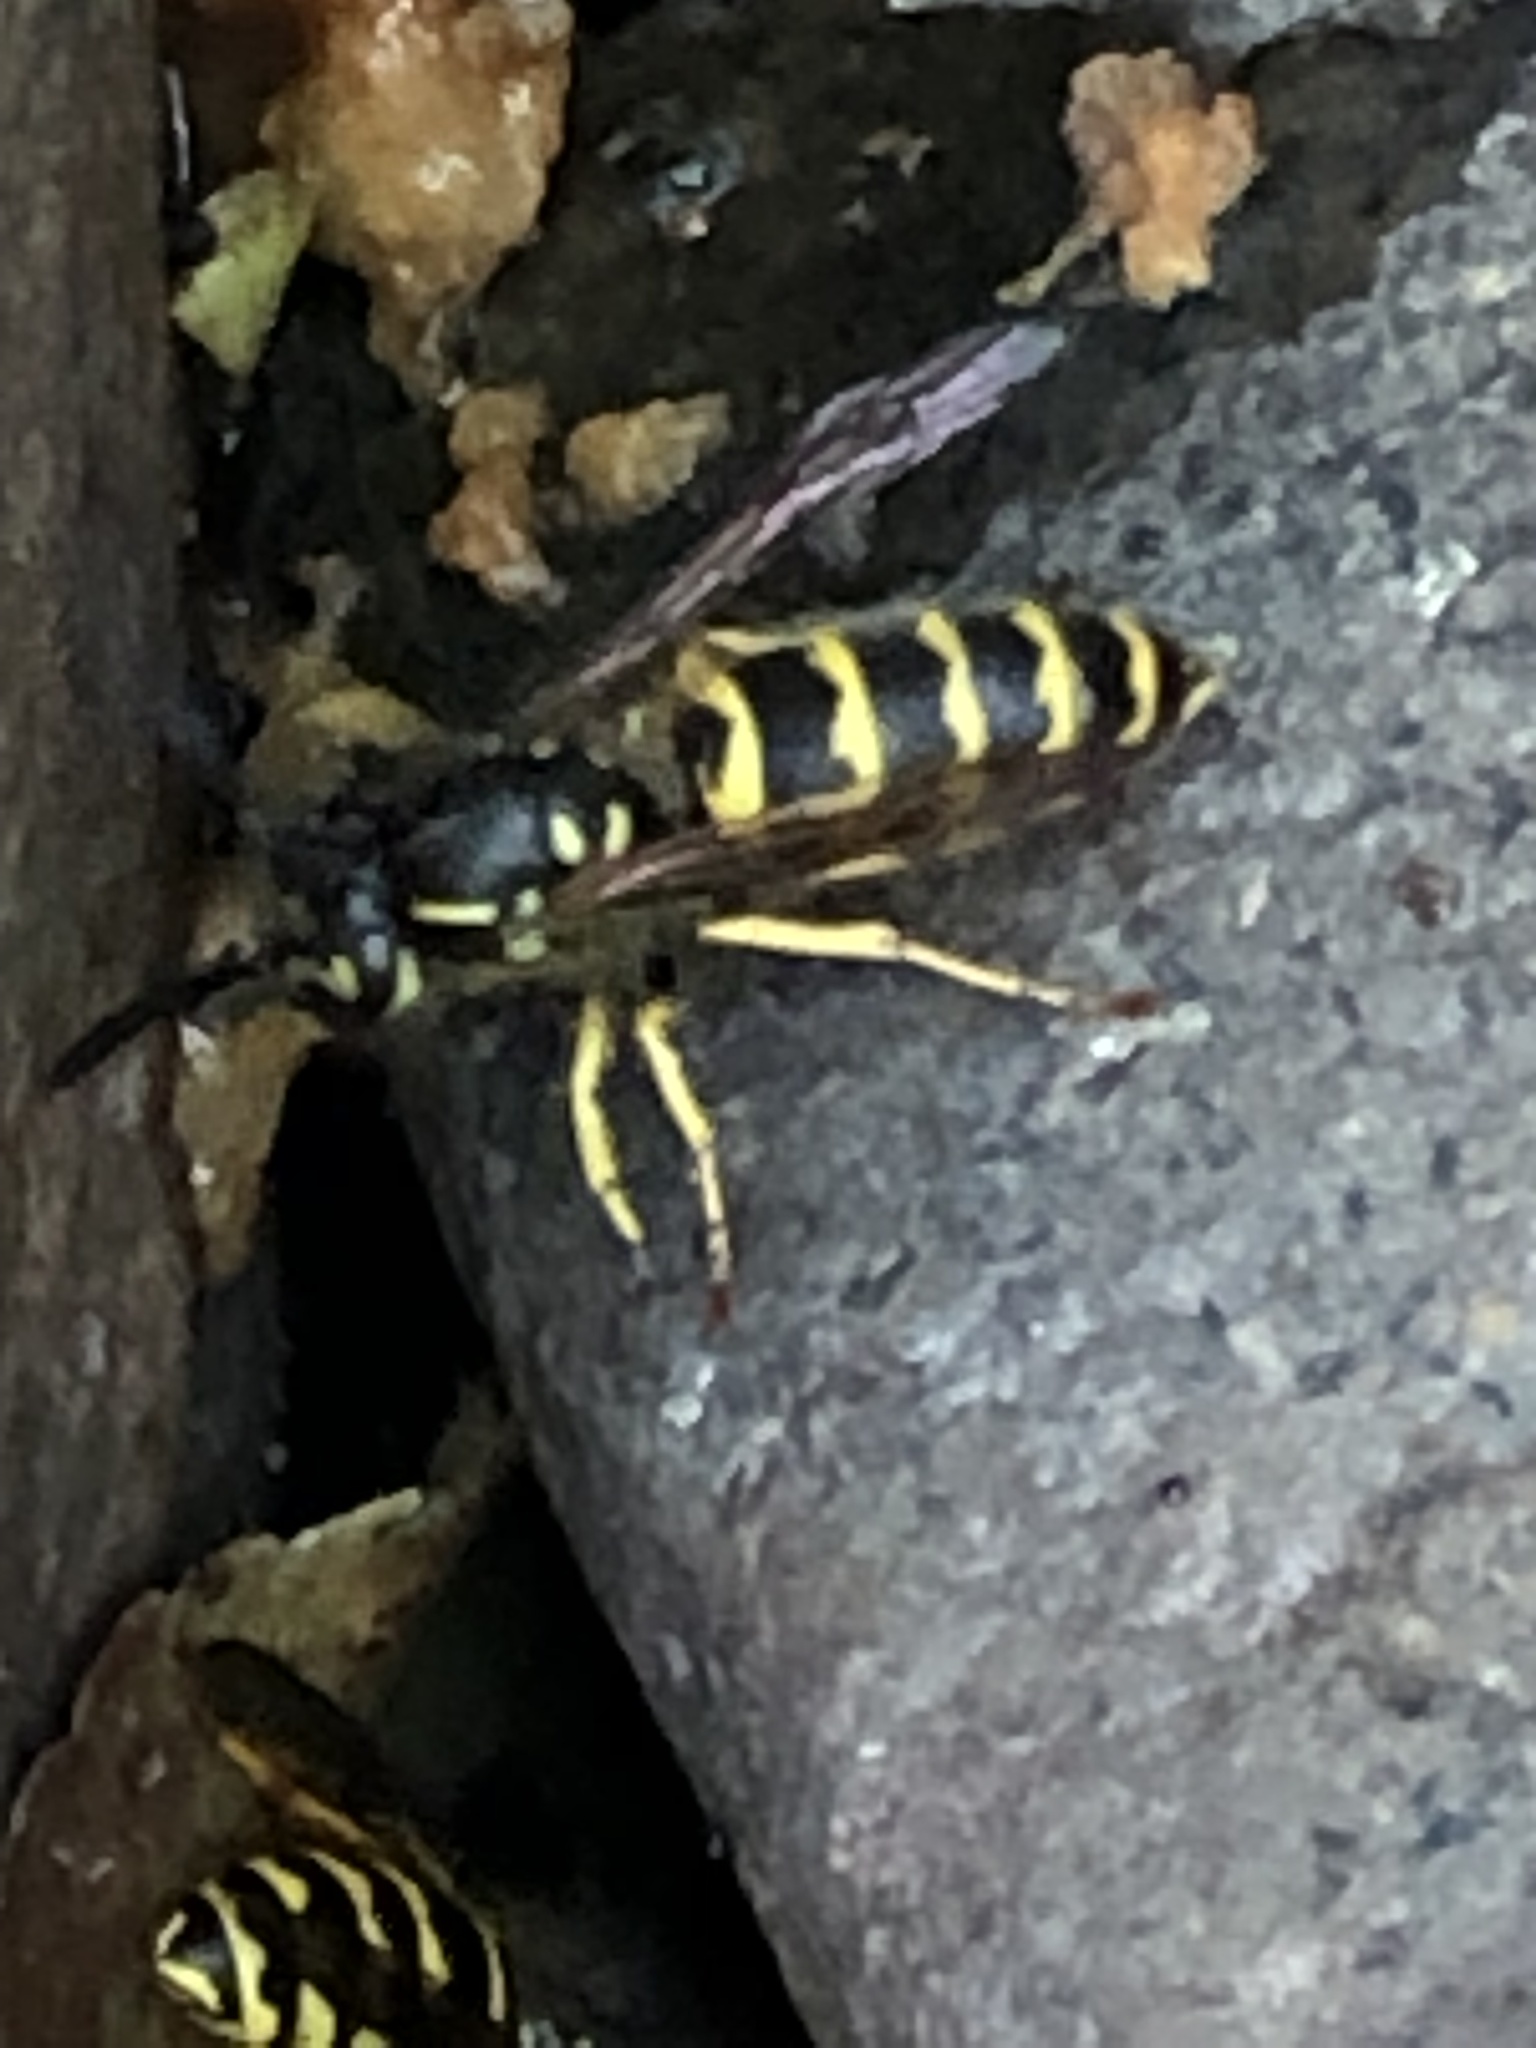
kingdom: Animalia
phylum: Arthropoda
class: Insecta
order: Hymenoptera
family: Vespidae
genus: Vespula
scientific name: Vespula alascensis
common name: Alaska yellowjacket
